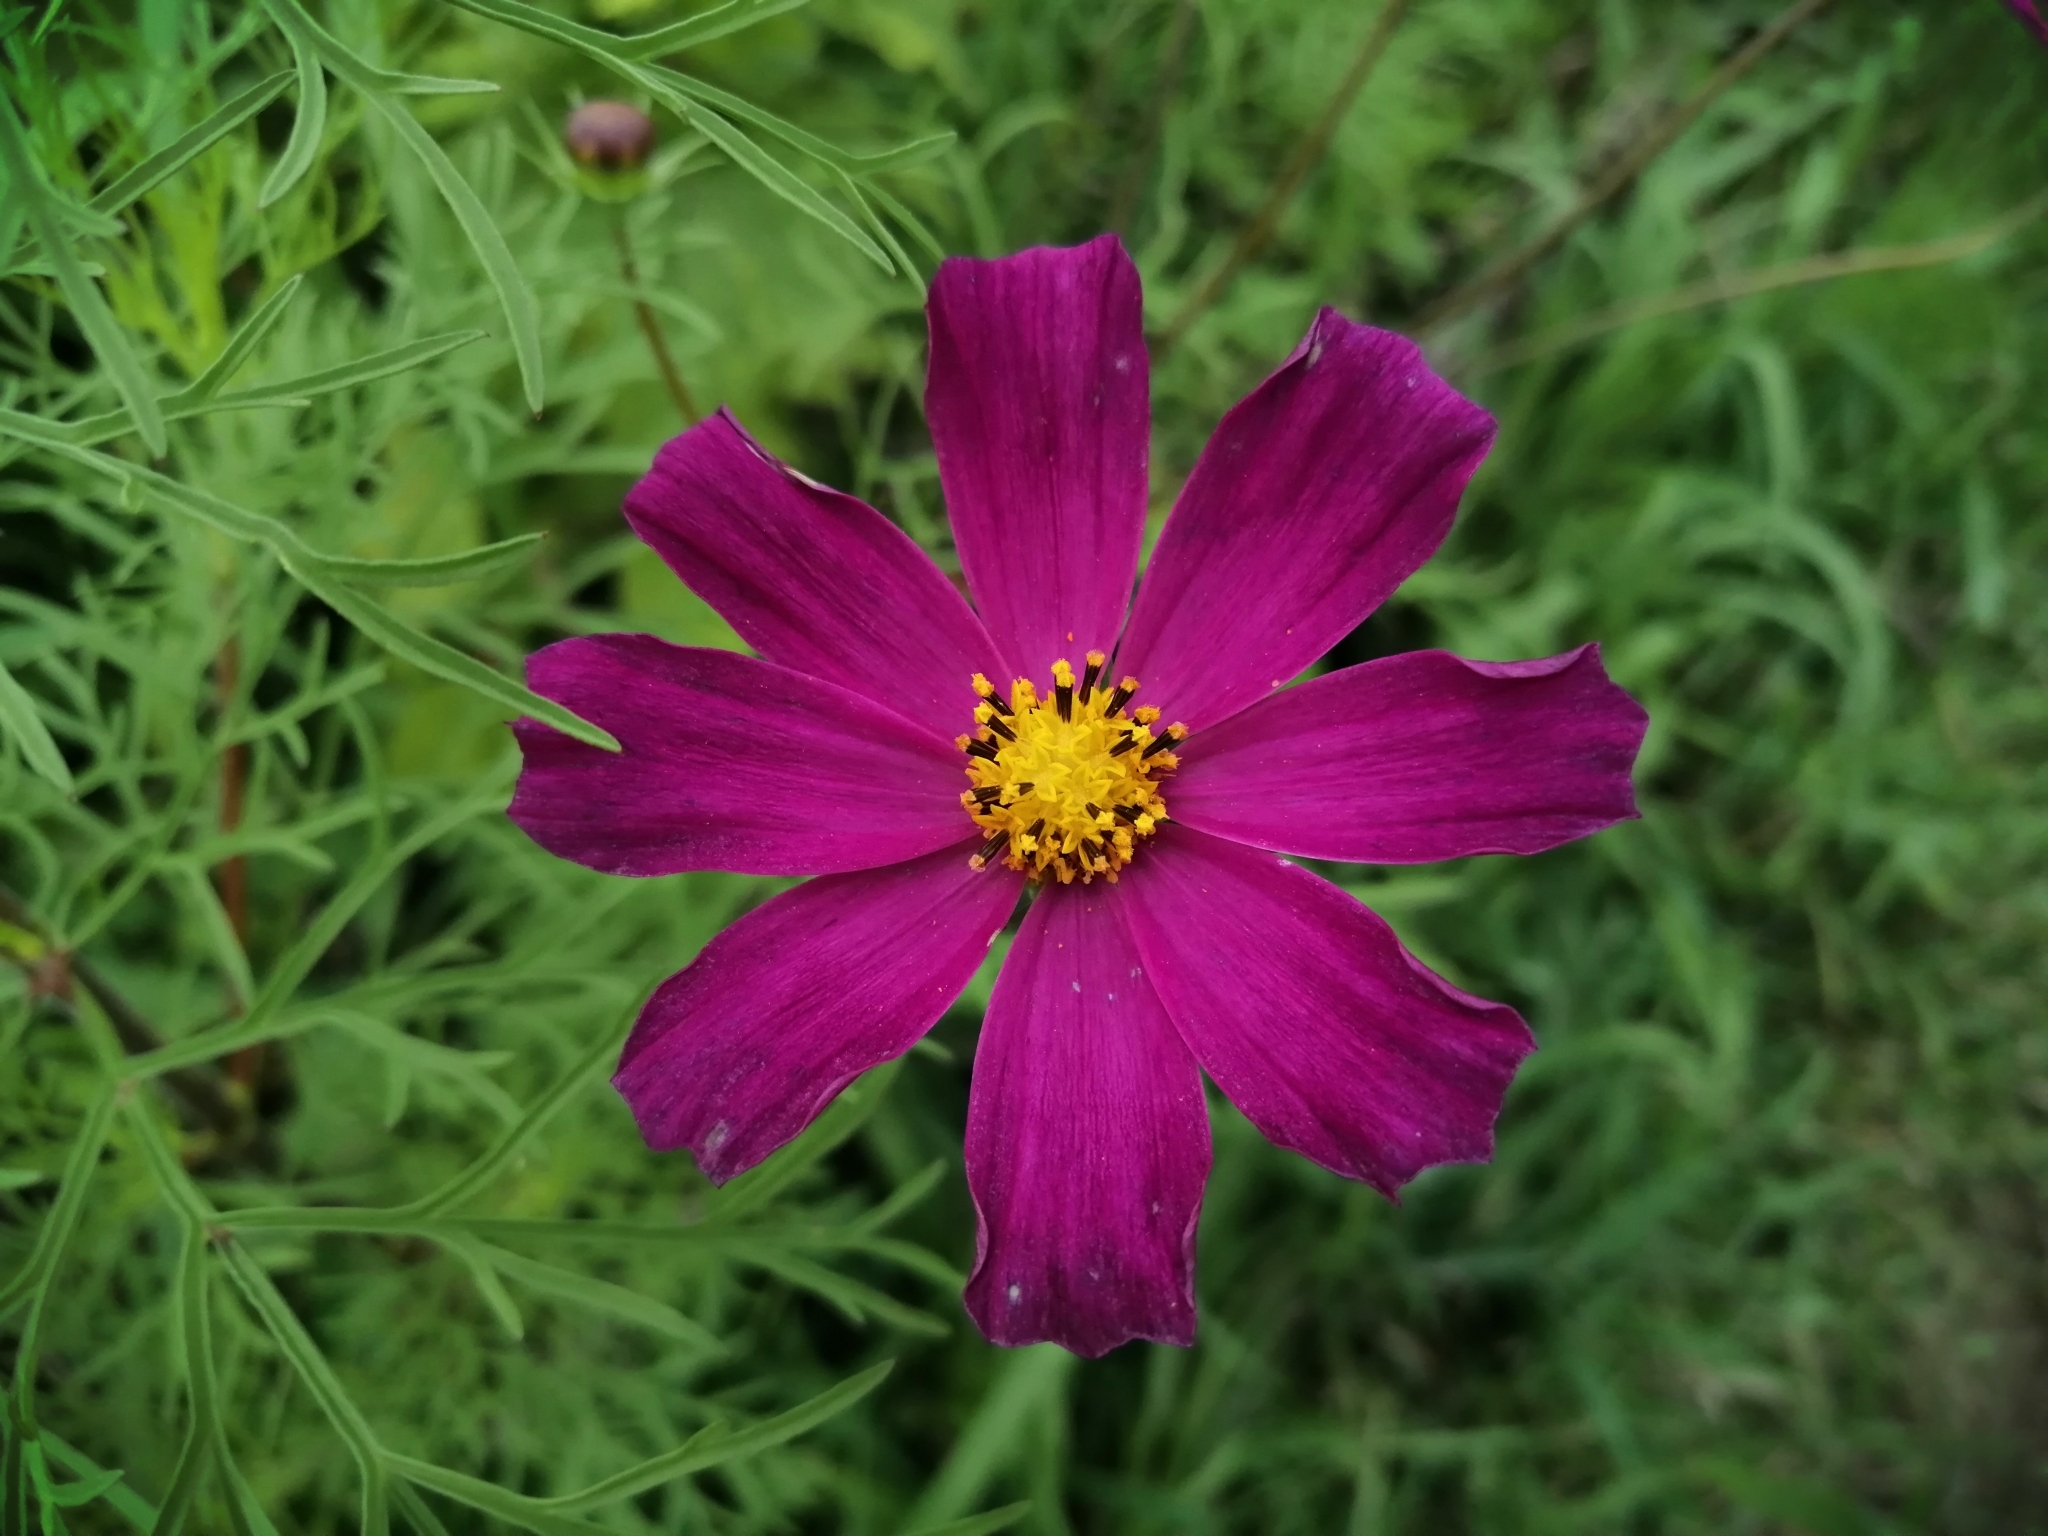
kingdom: Plantae
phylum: Tracheophyta
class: Magnoliopsida
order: Asterales
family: Asteraceae
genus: Cosmos
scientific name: Cosmos bipinnatus
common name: Garden cosmos
